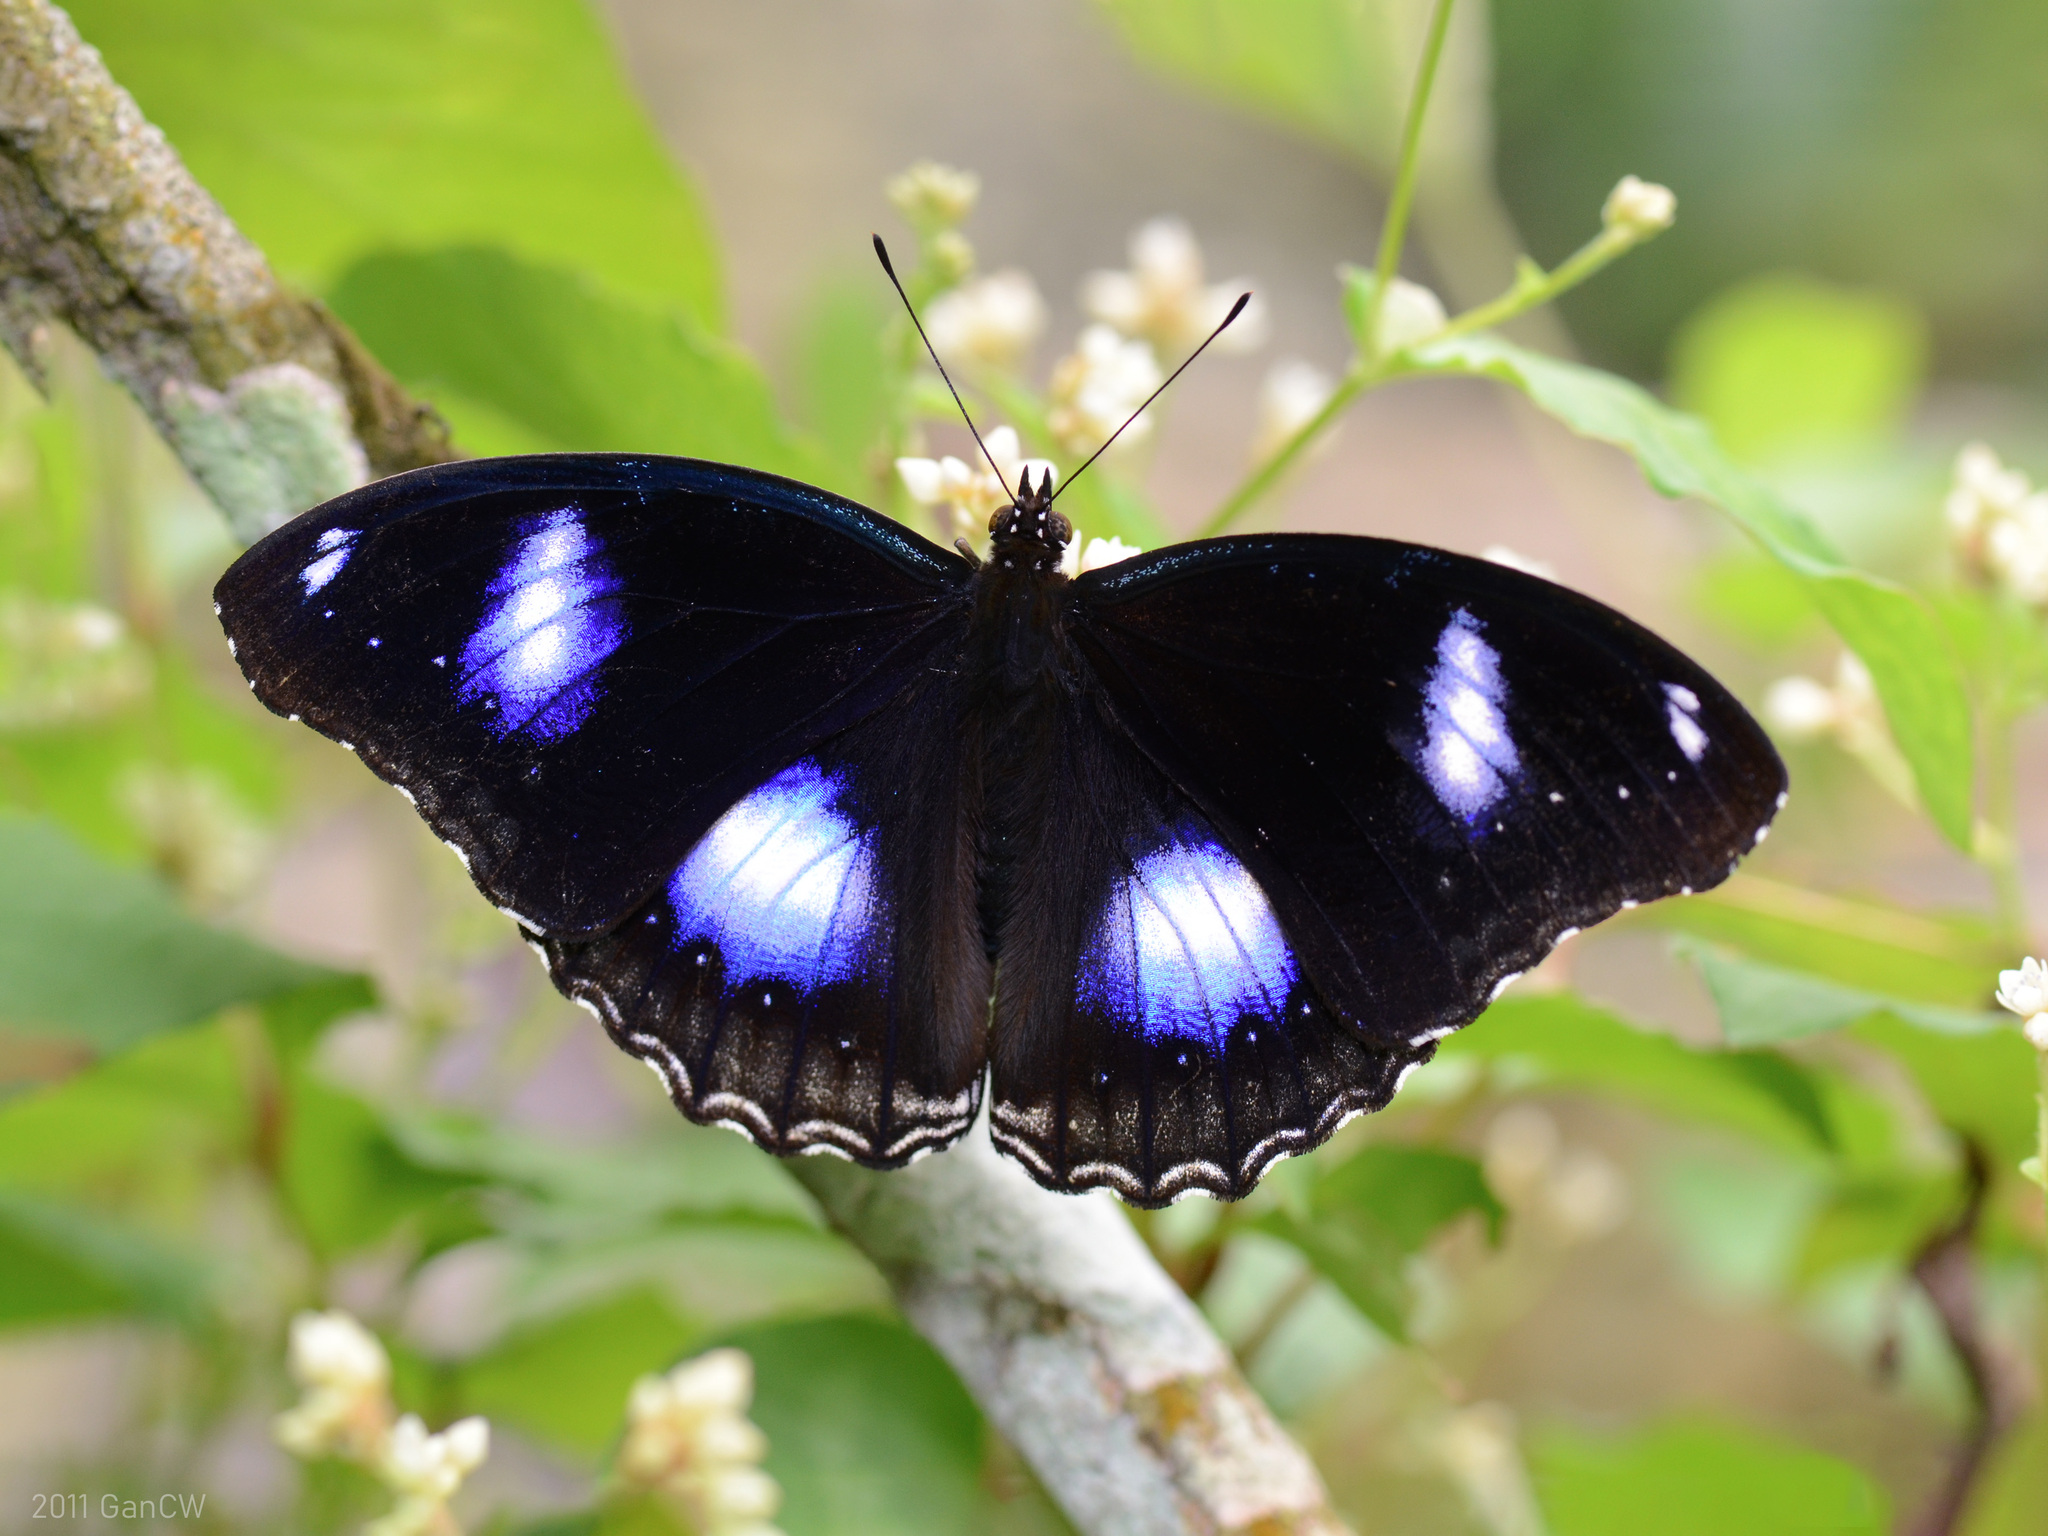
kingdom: Animalia
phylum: Arthropoda
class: Insecta
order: Lepidoptera
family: Nymphalidae
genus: Hypolimnas
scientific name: Hypolimnas bolina
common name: Great eggfly
